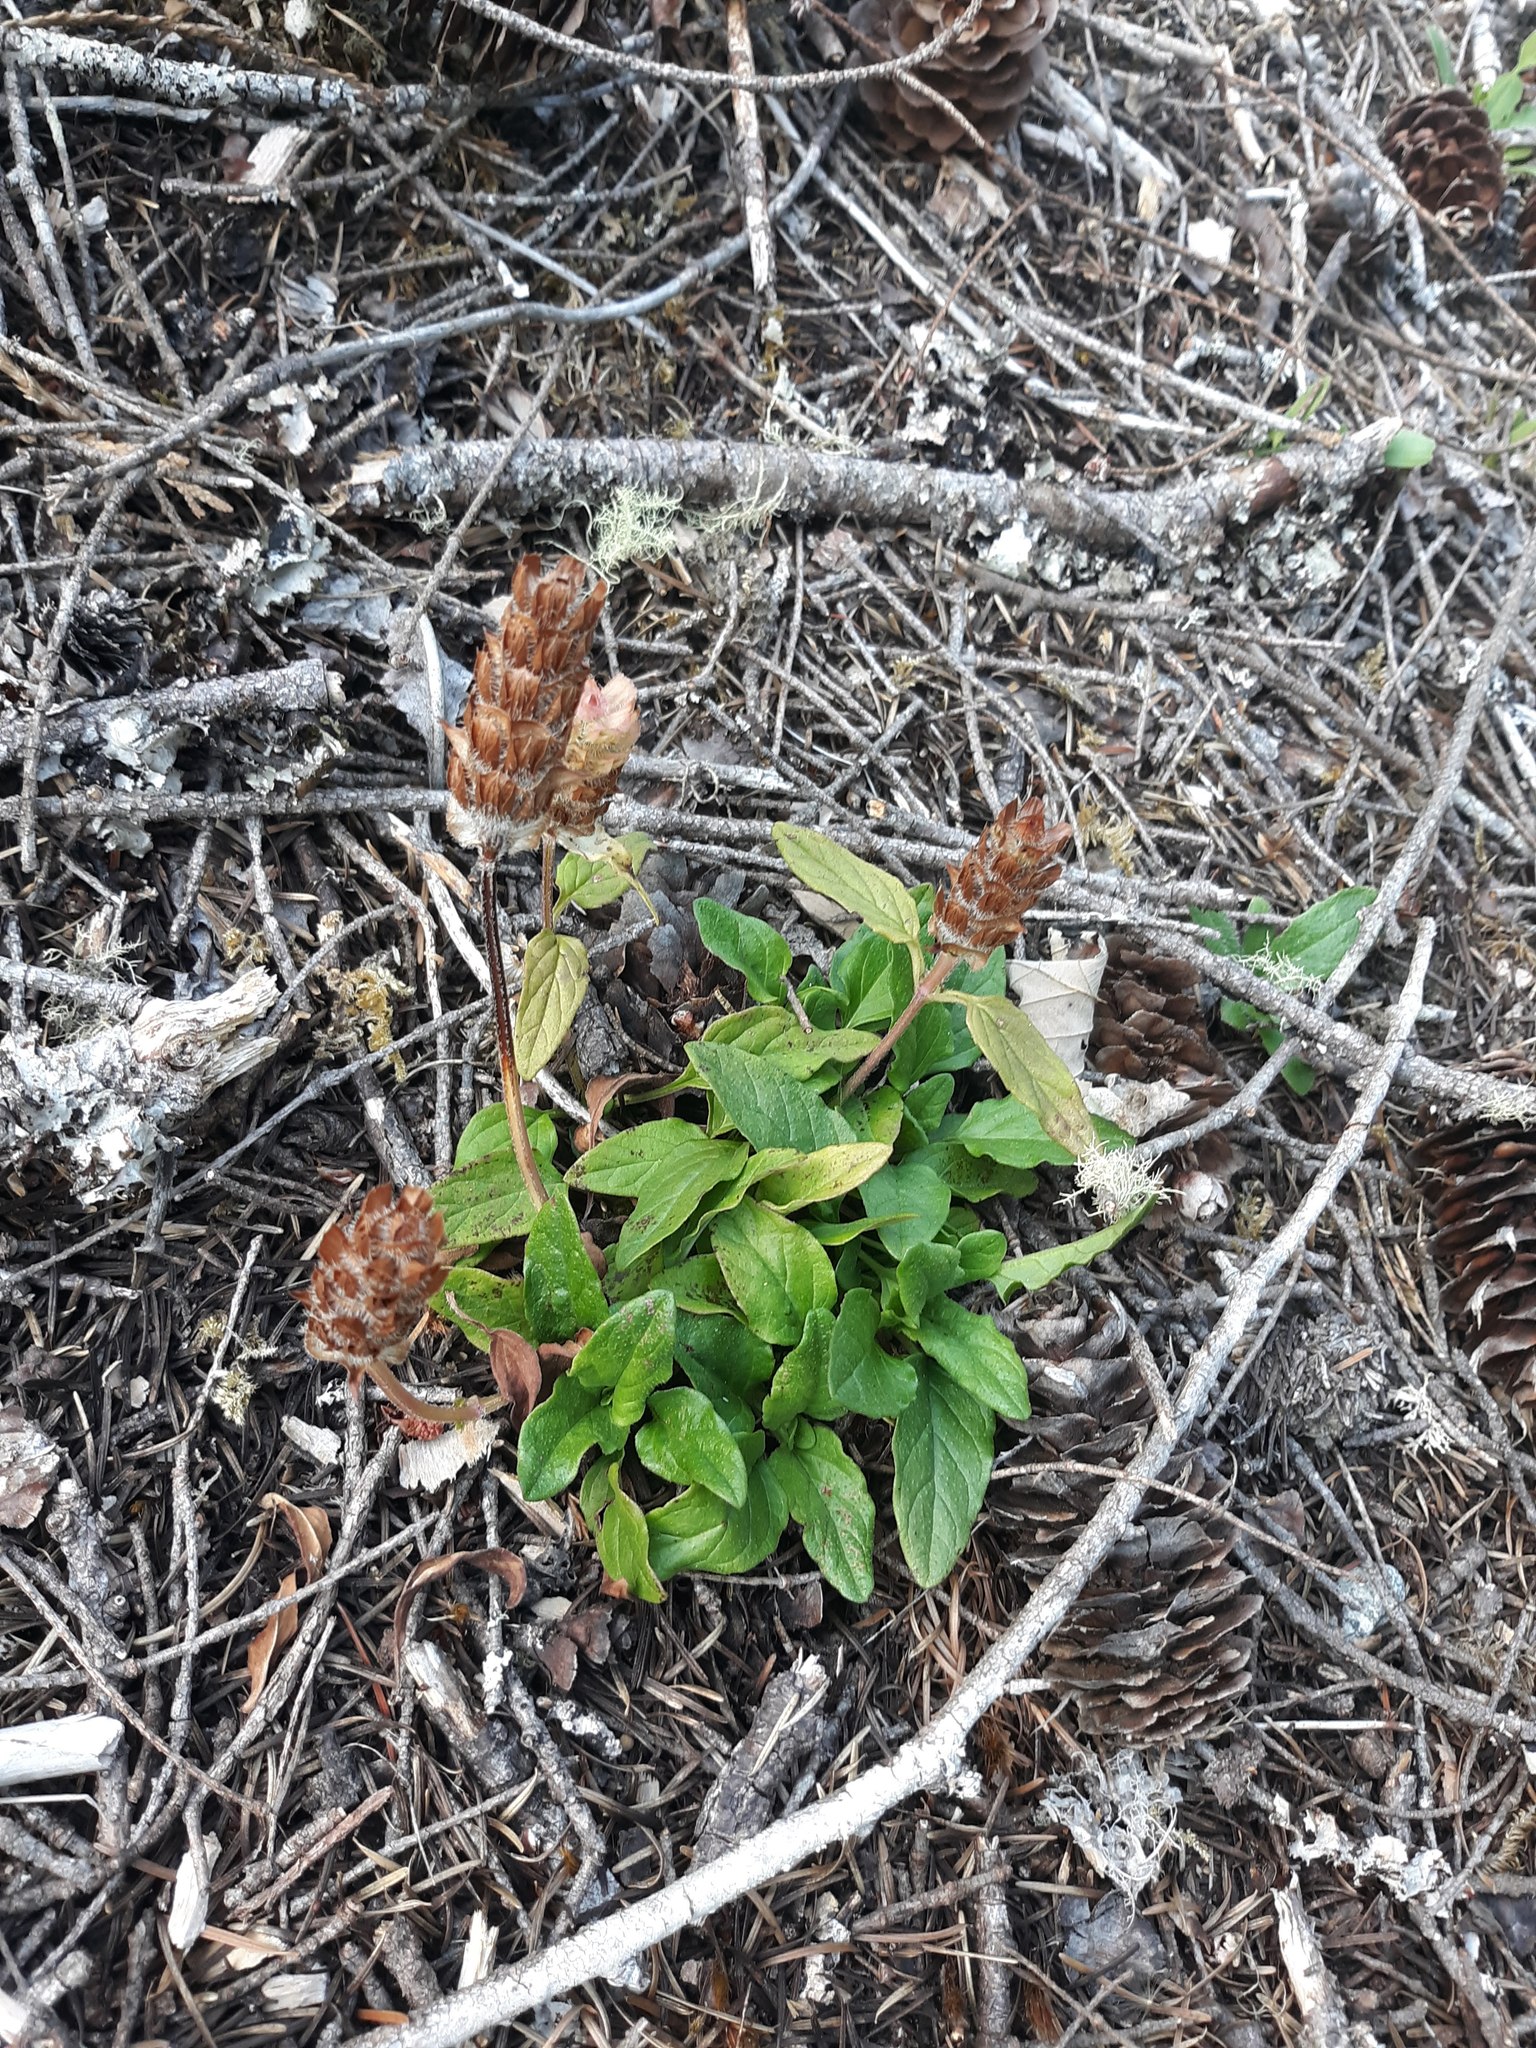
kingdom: Plantae
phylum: Tracheophyta
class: Magnoliopsida
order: Lamiales
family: Lamiaceae
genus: Prunella
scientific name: Prunella vulgaris
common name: Heal-all
